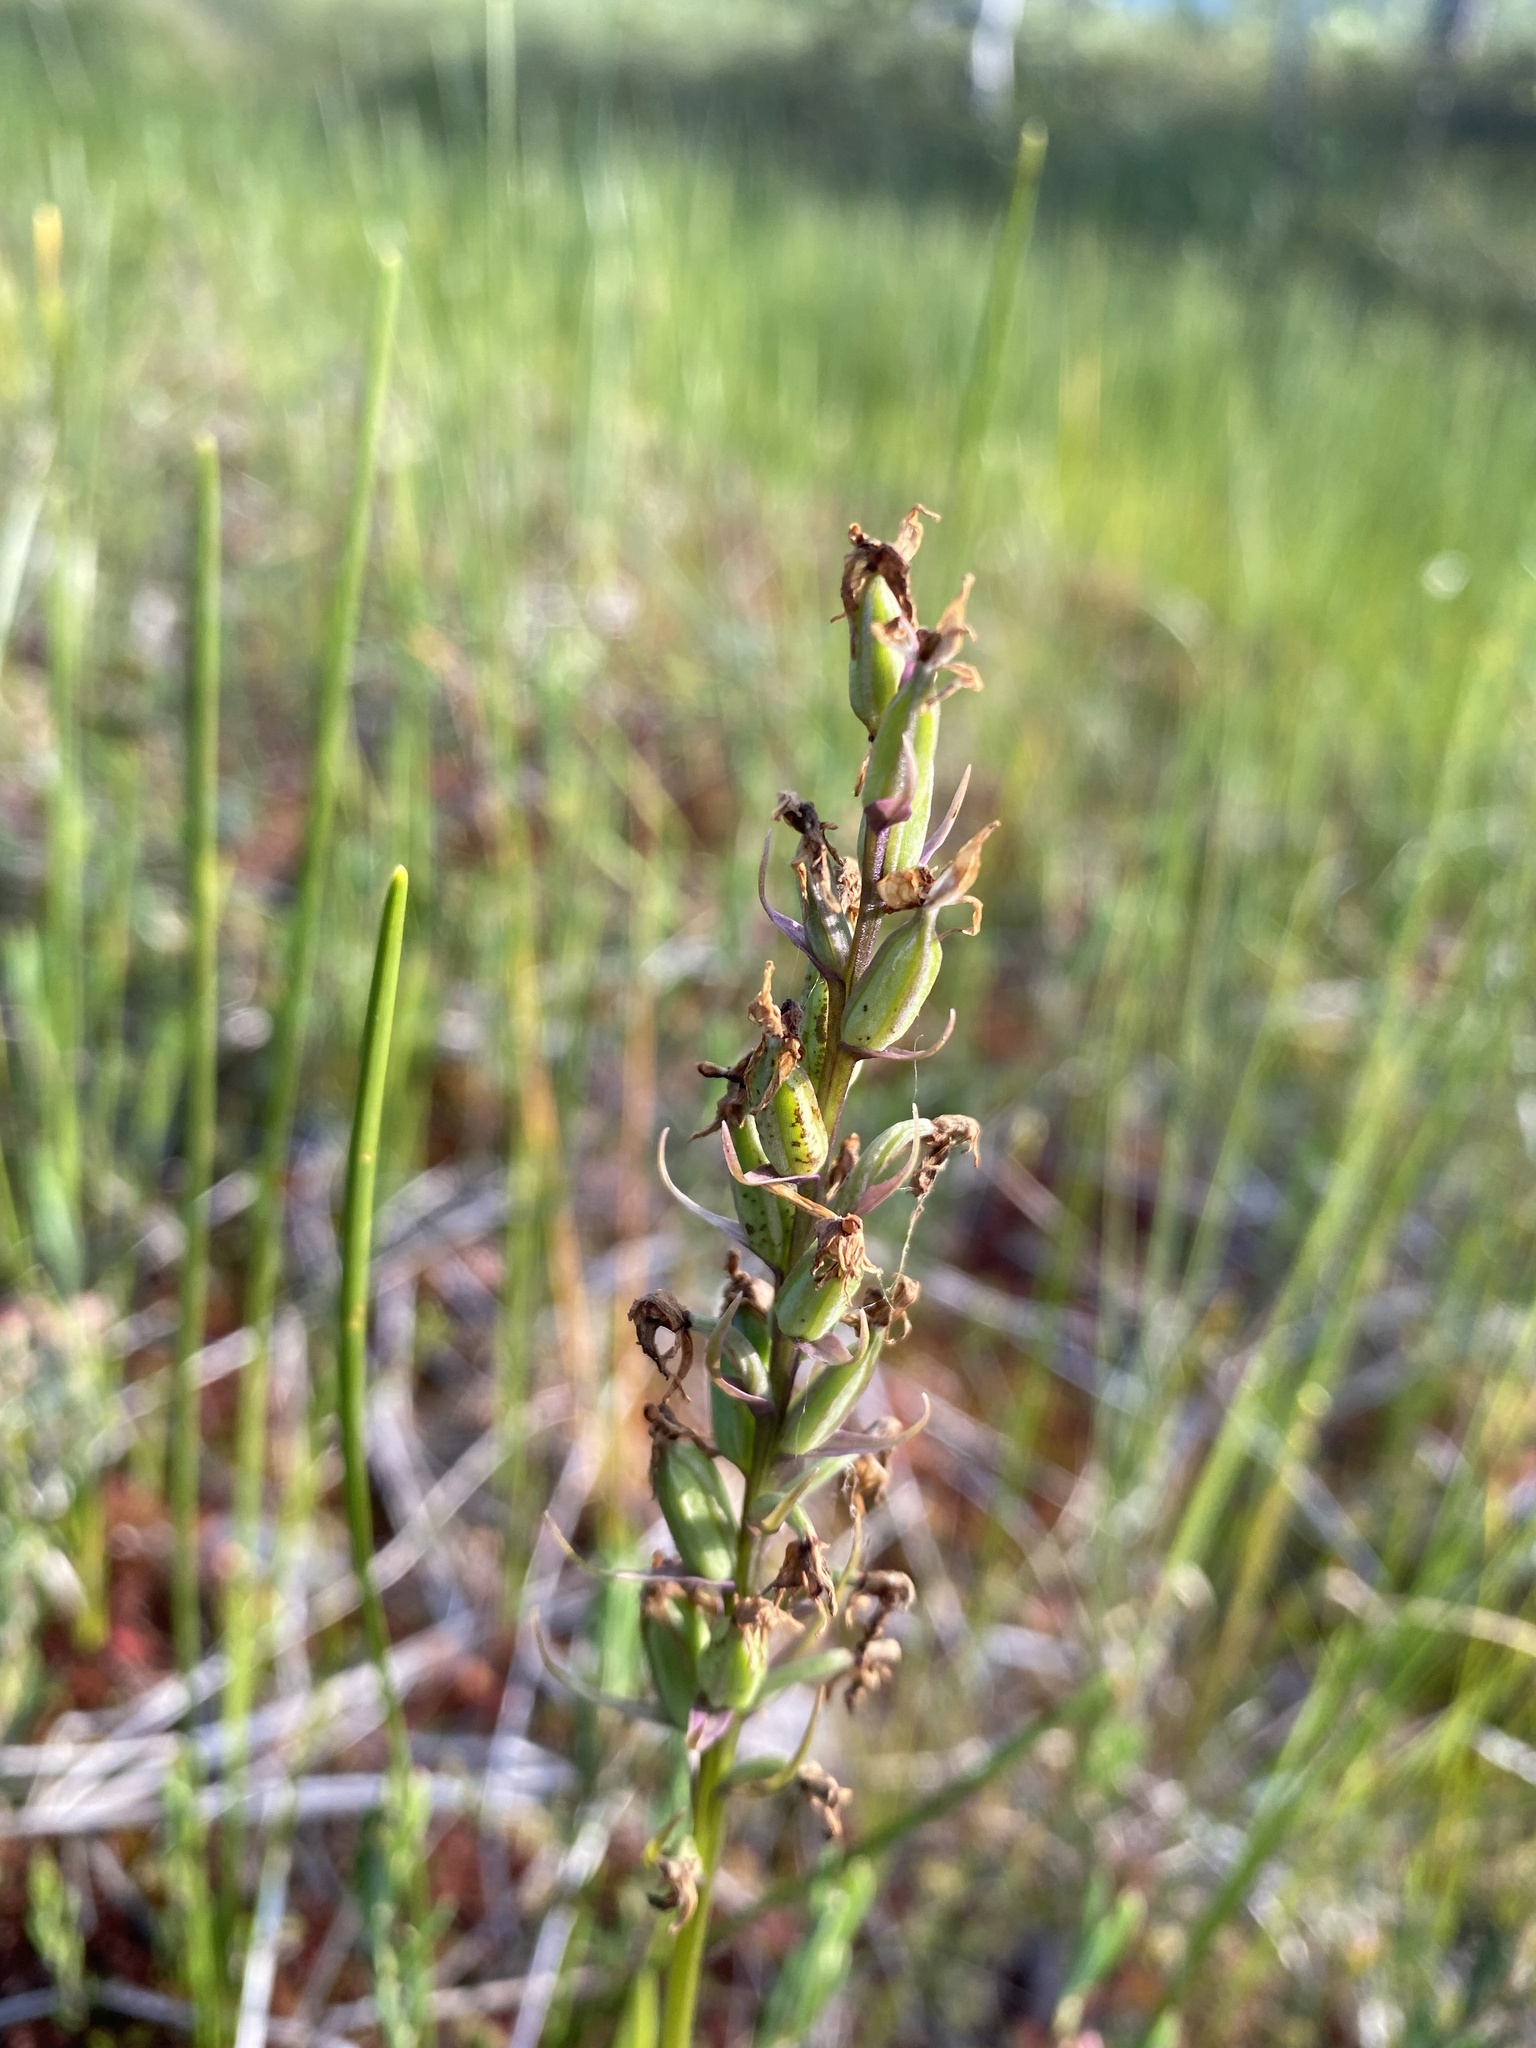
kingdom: Plantae
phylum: Tracheophyta
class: Liliopsida
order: Asparagales
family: Orchidaceae
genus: Dactylorhiza
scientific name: Dactylorhiza maculata
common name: Heath spotted-orchid
